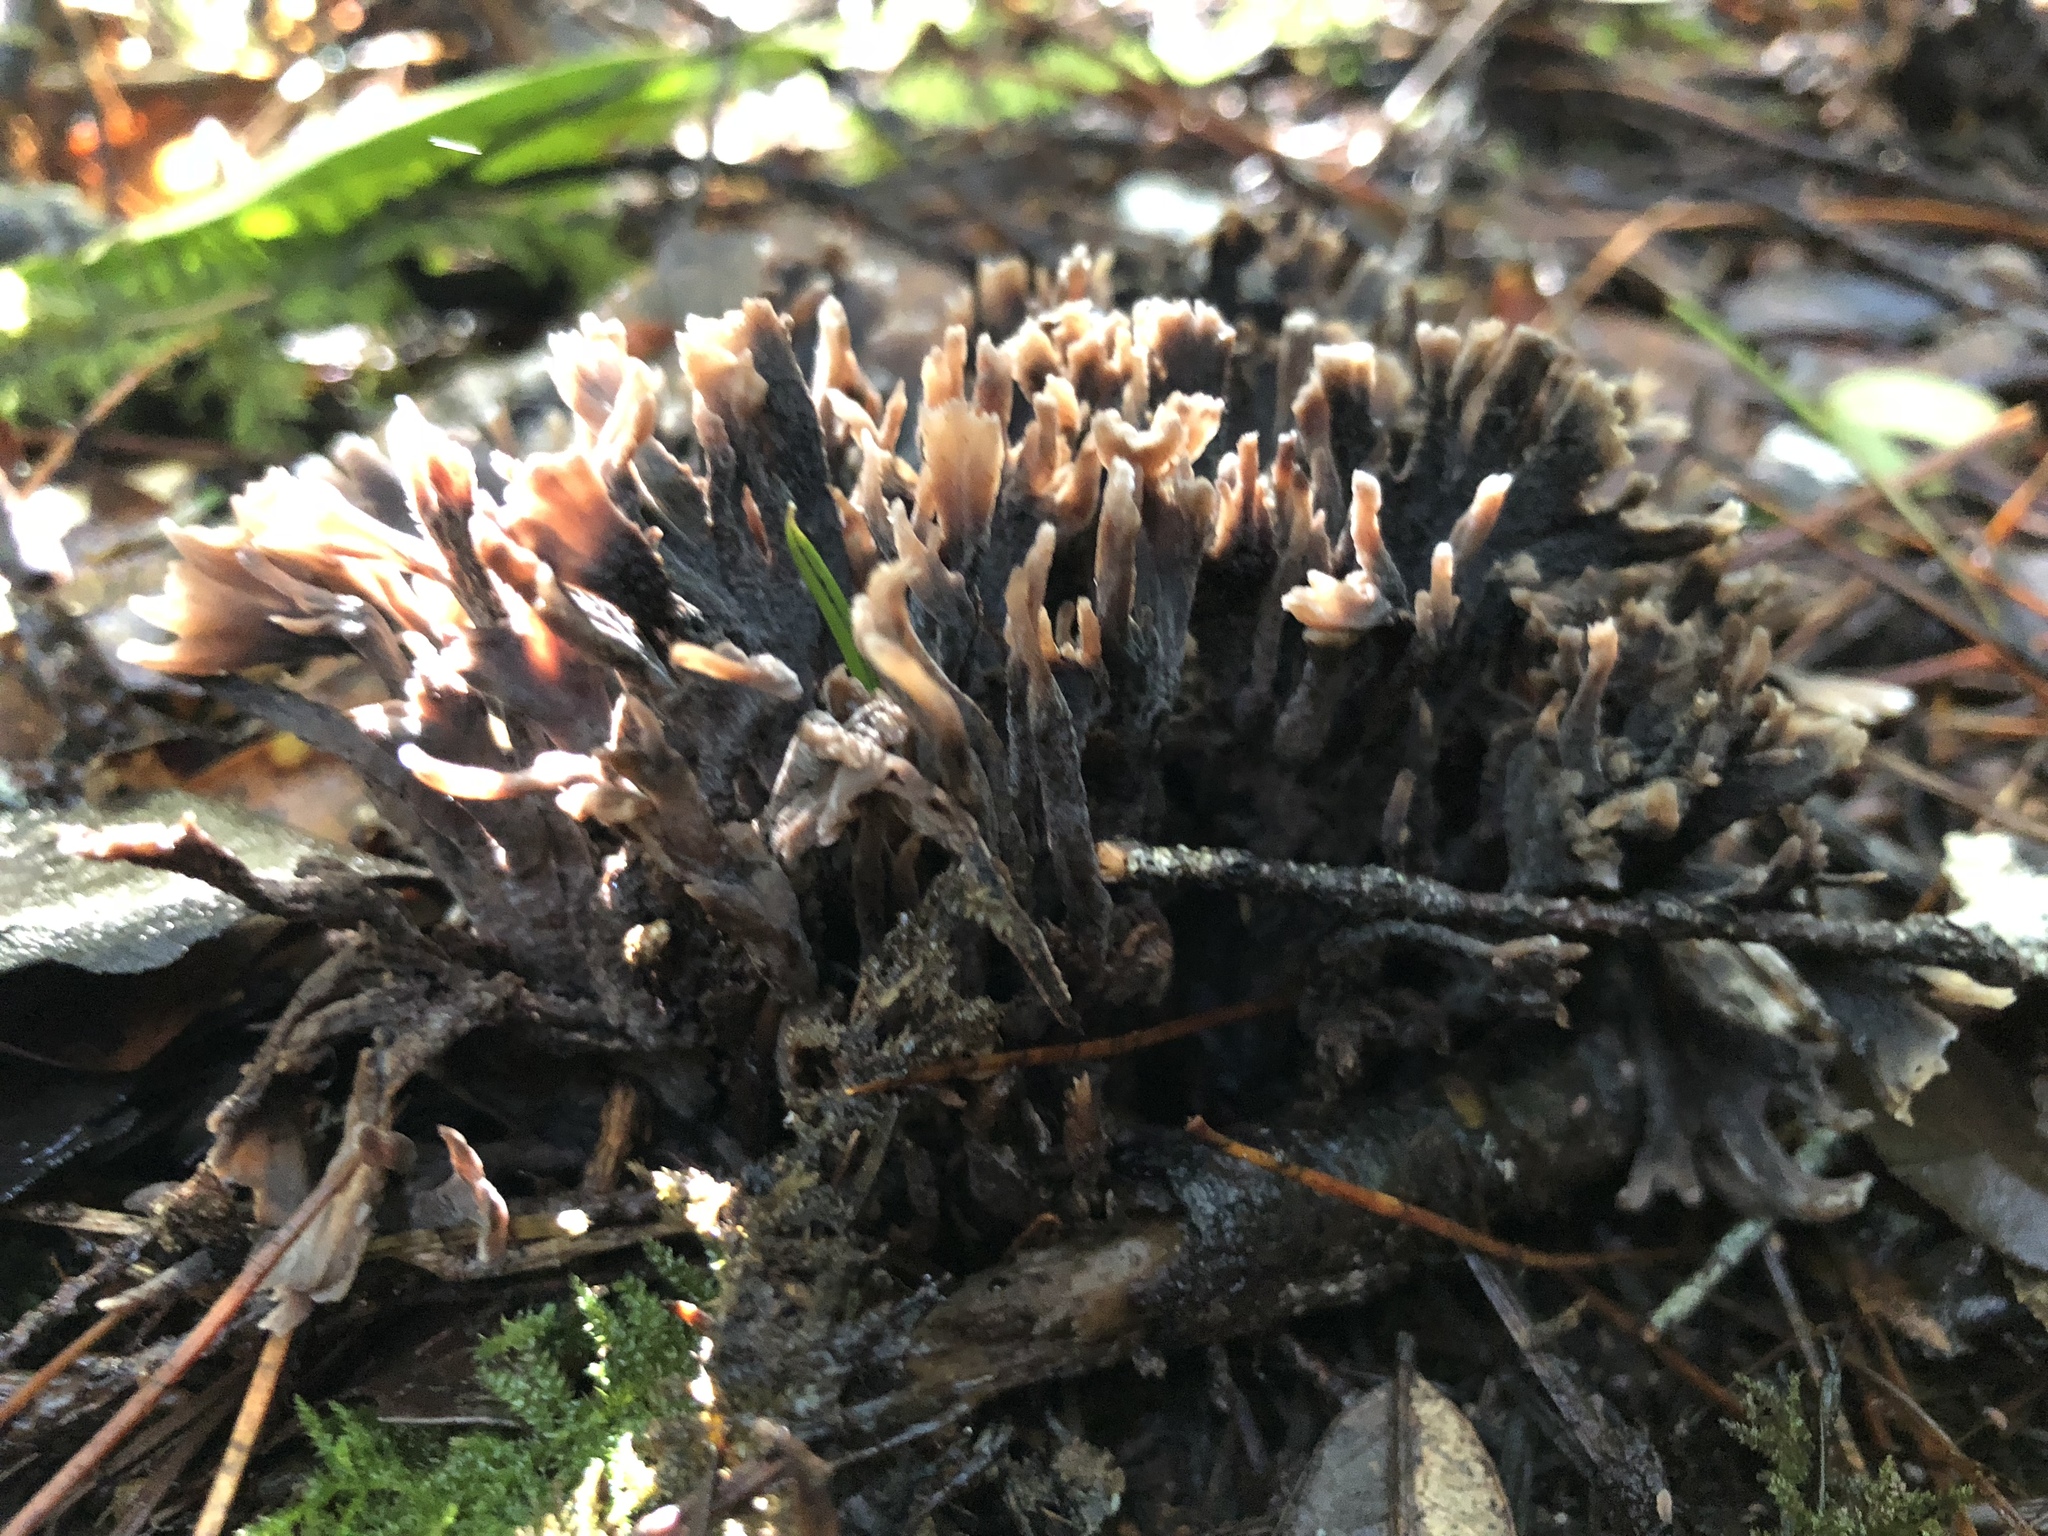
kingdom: Fungi
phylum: Basidiomycota
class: Agaricomycetes
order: Thelephorales
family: Thelephoraceae
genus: Thelephora
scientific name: Thelephora palmata
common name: Stinking earthfan
